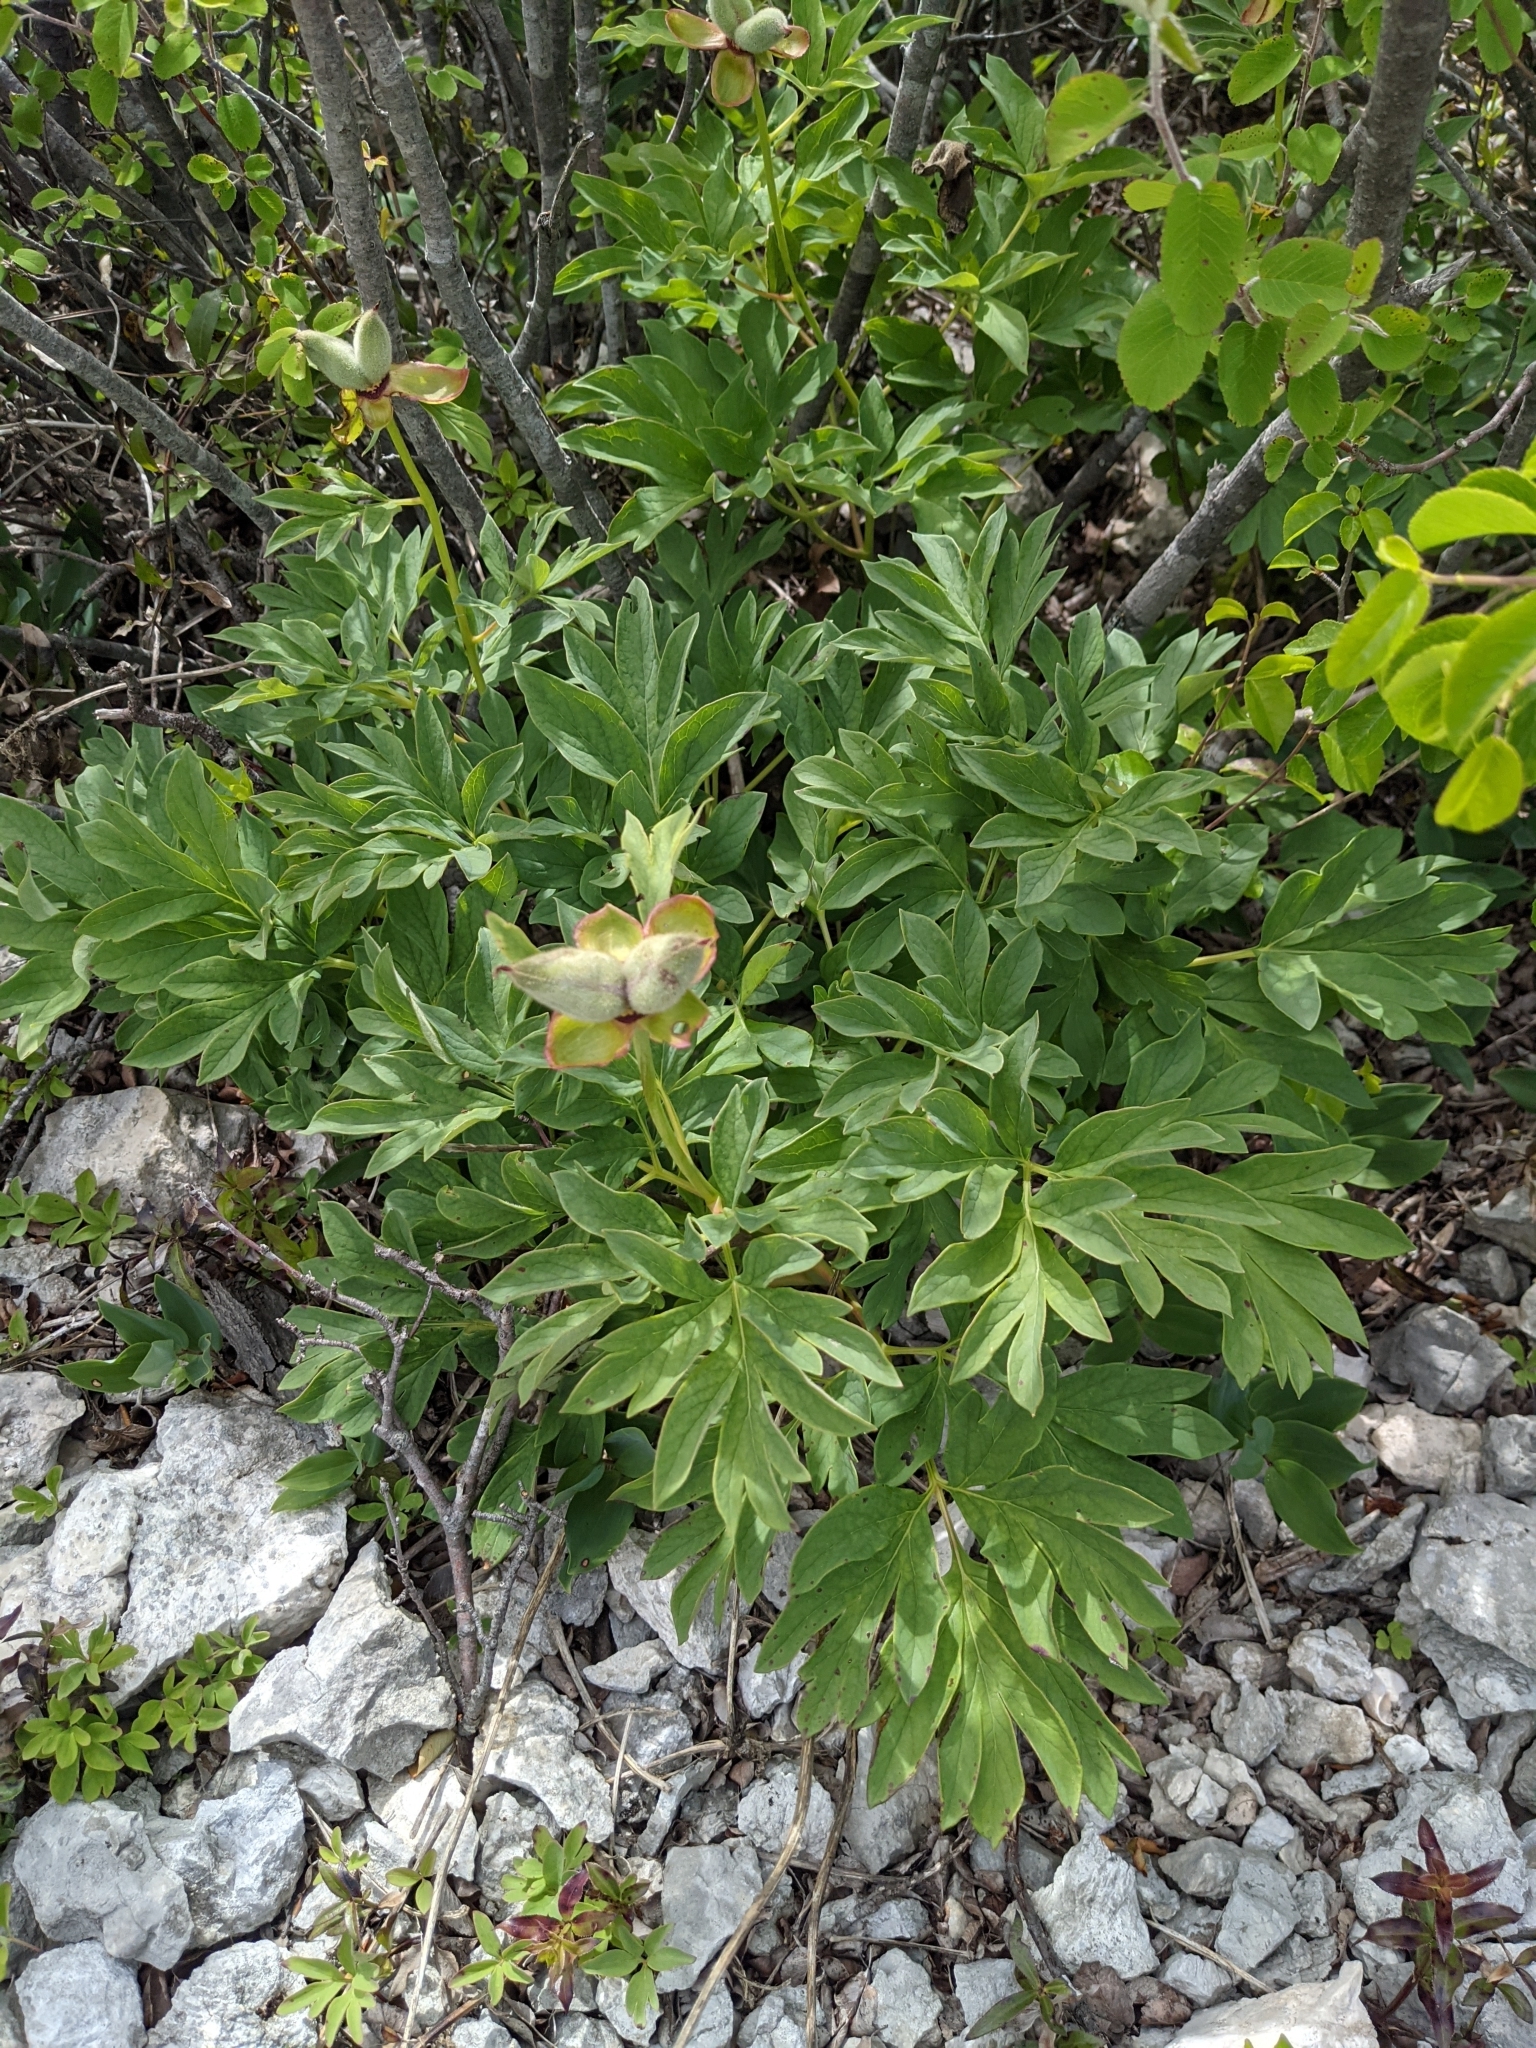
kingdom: Plantae
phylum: Tracheophyta
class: Magnoliopsida
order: Saxifragales
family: Paeoniaceae
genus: Paeonia
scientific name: Paeonia officinalis
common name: Common peony
